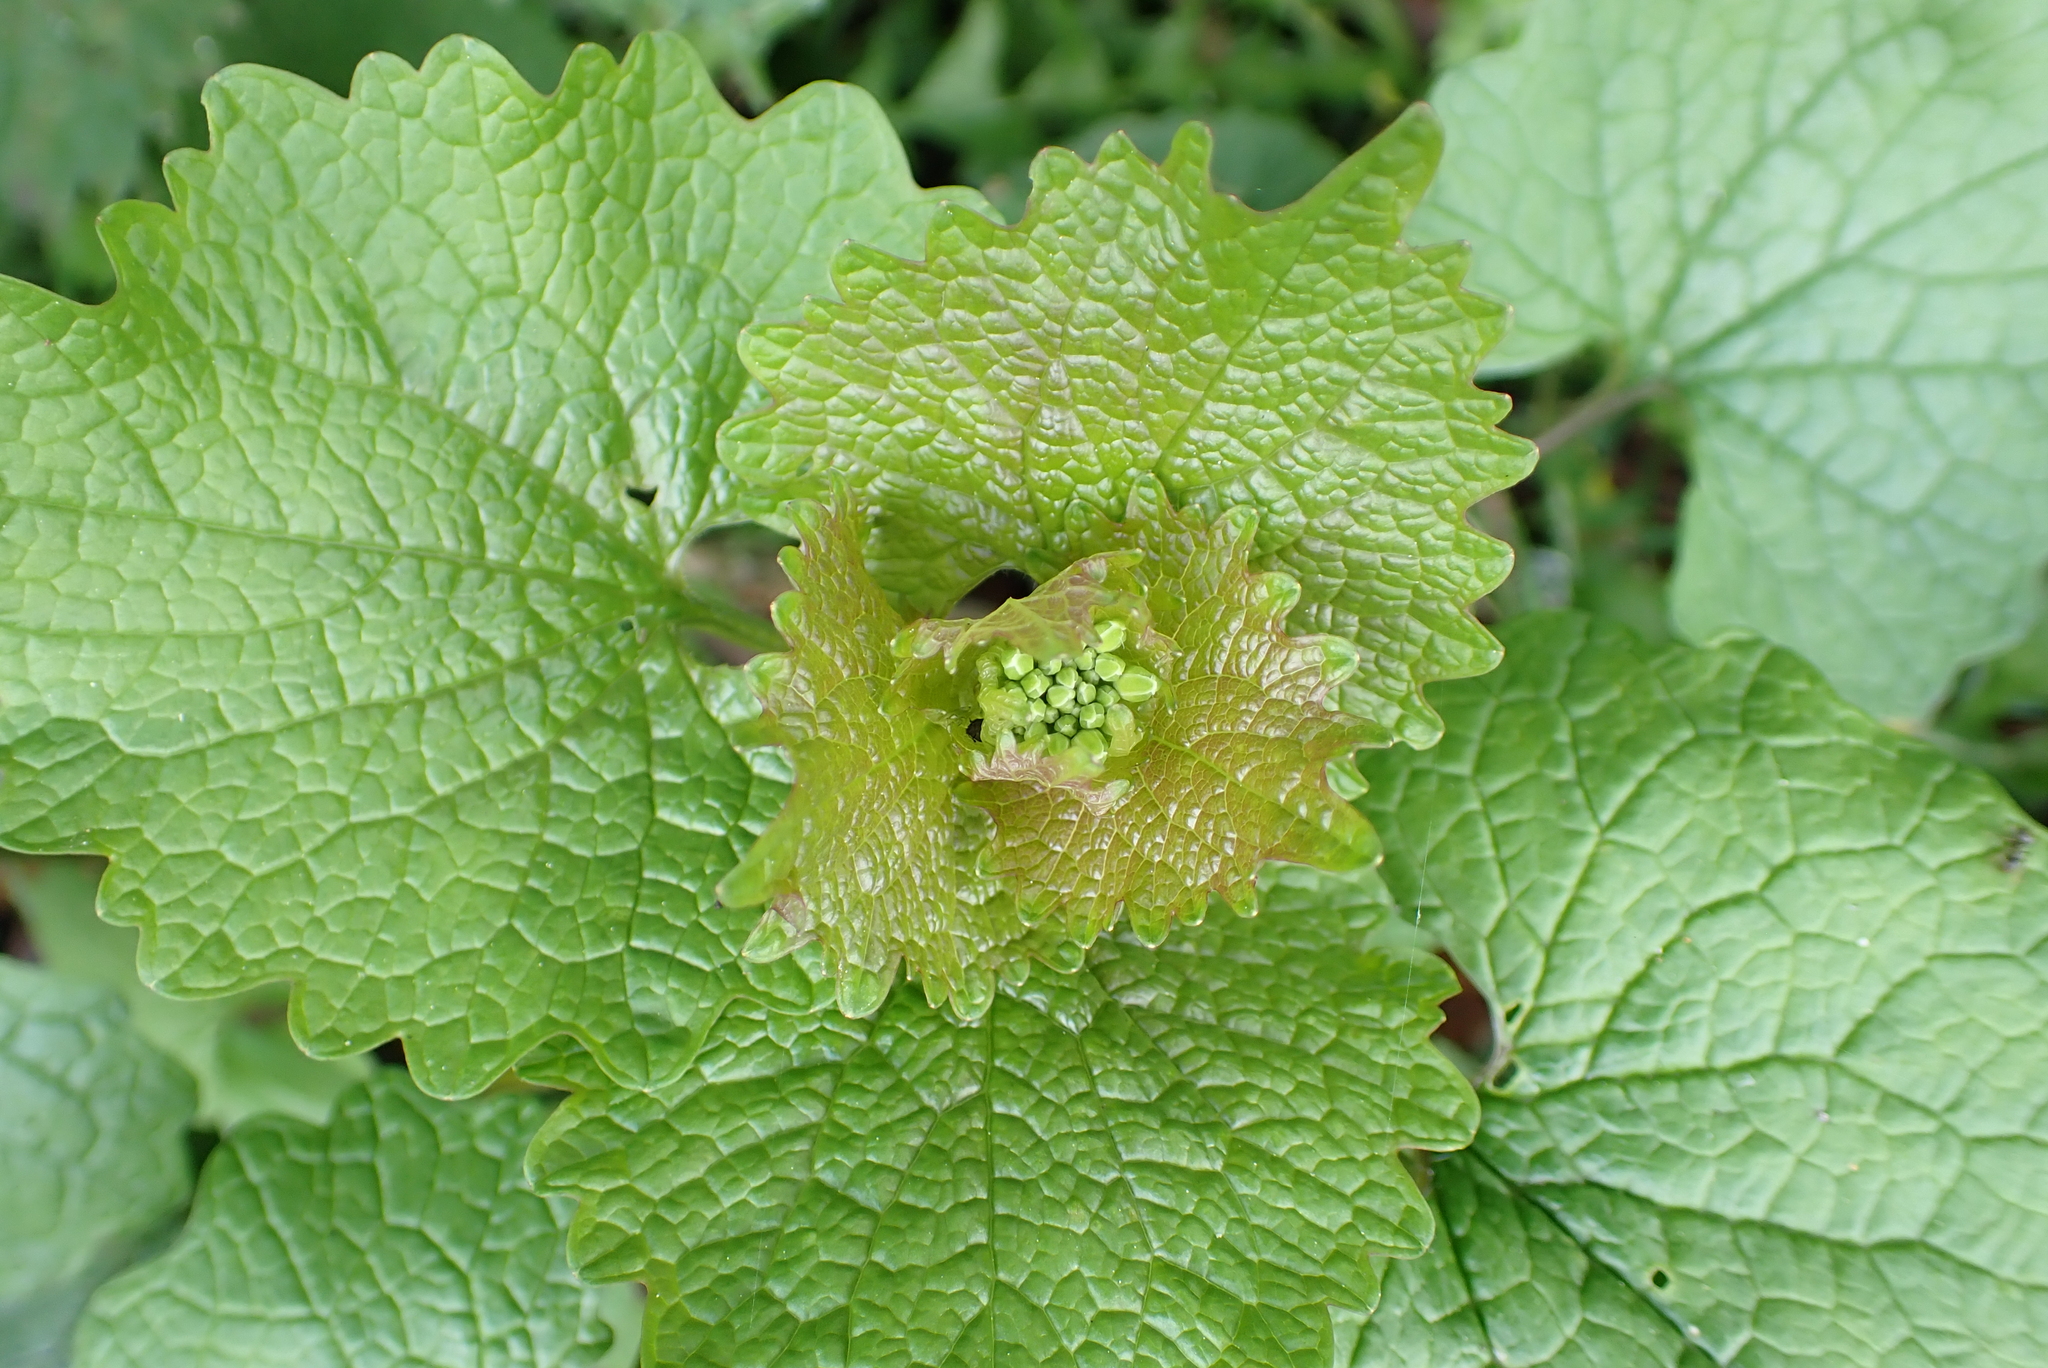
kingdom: Plantae
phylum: Tracheophyta
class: Magnoliopsida
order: Brassicales
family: Brassicaceae
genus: Alliaria
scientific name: Alliaria petiolata
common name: Garlic mustard
